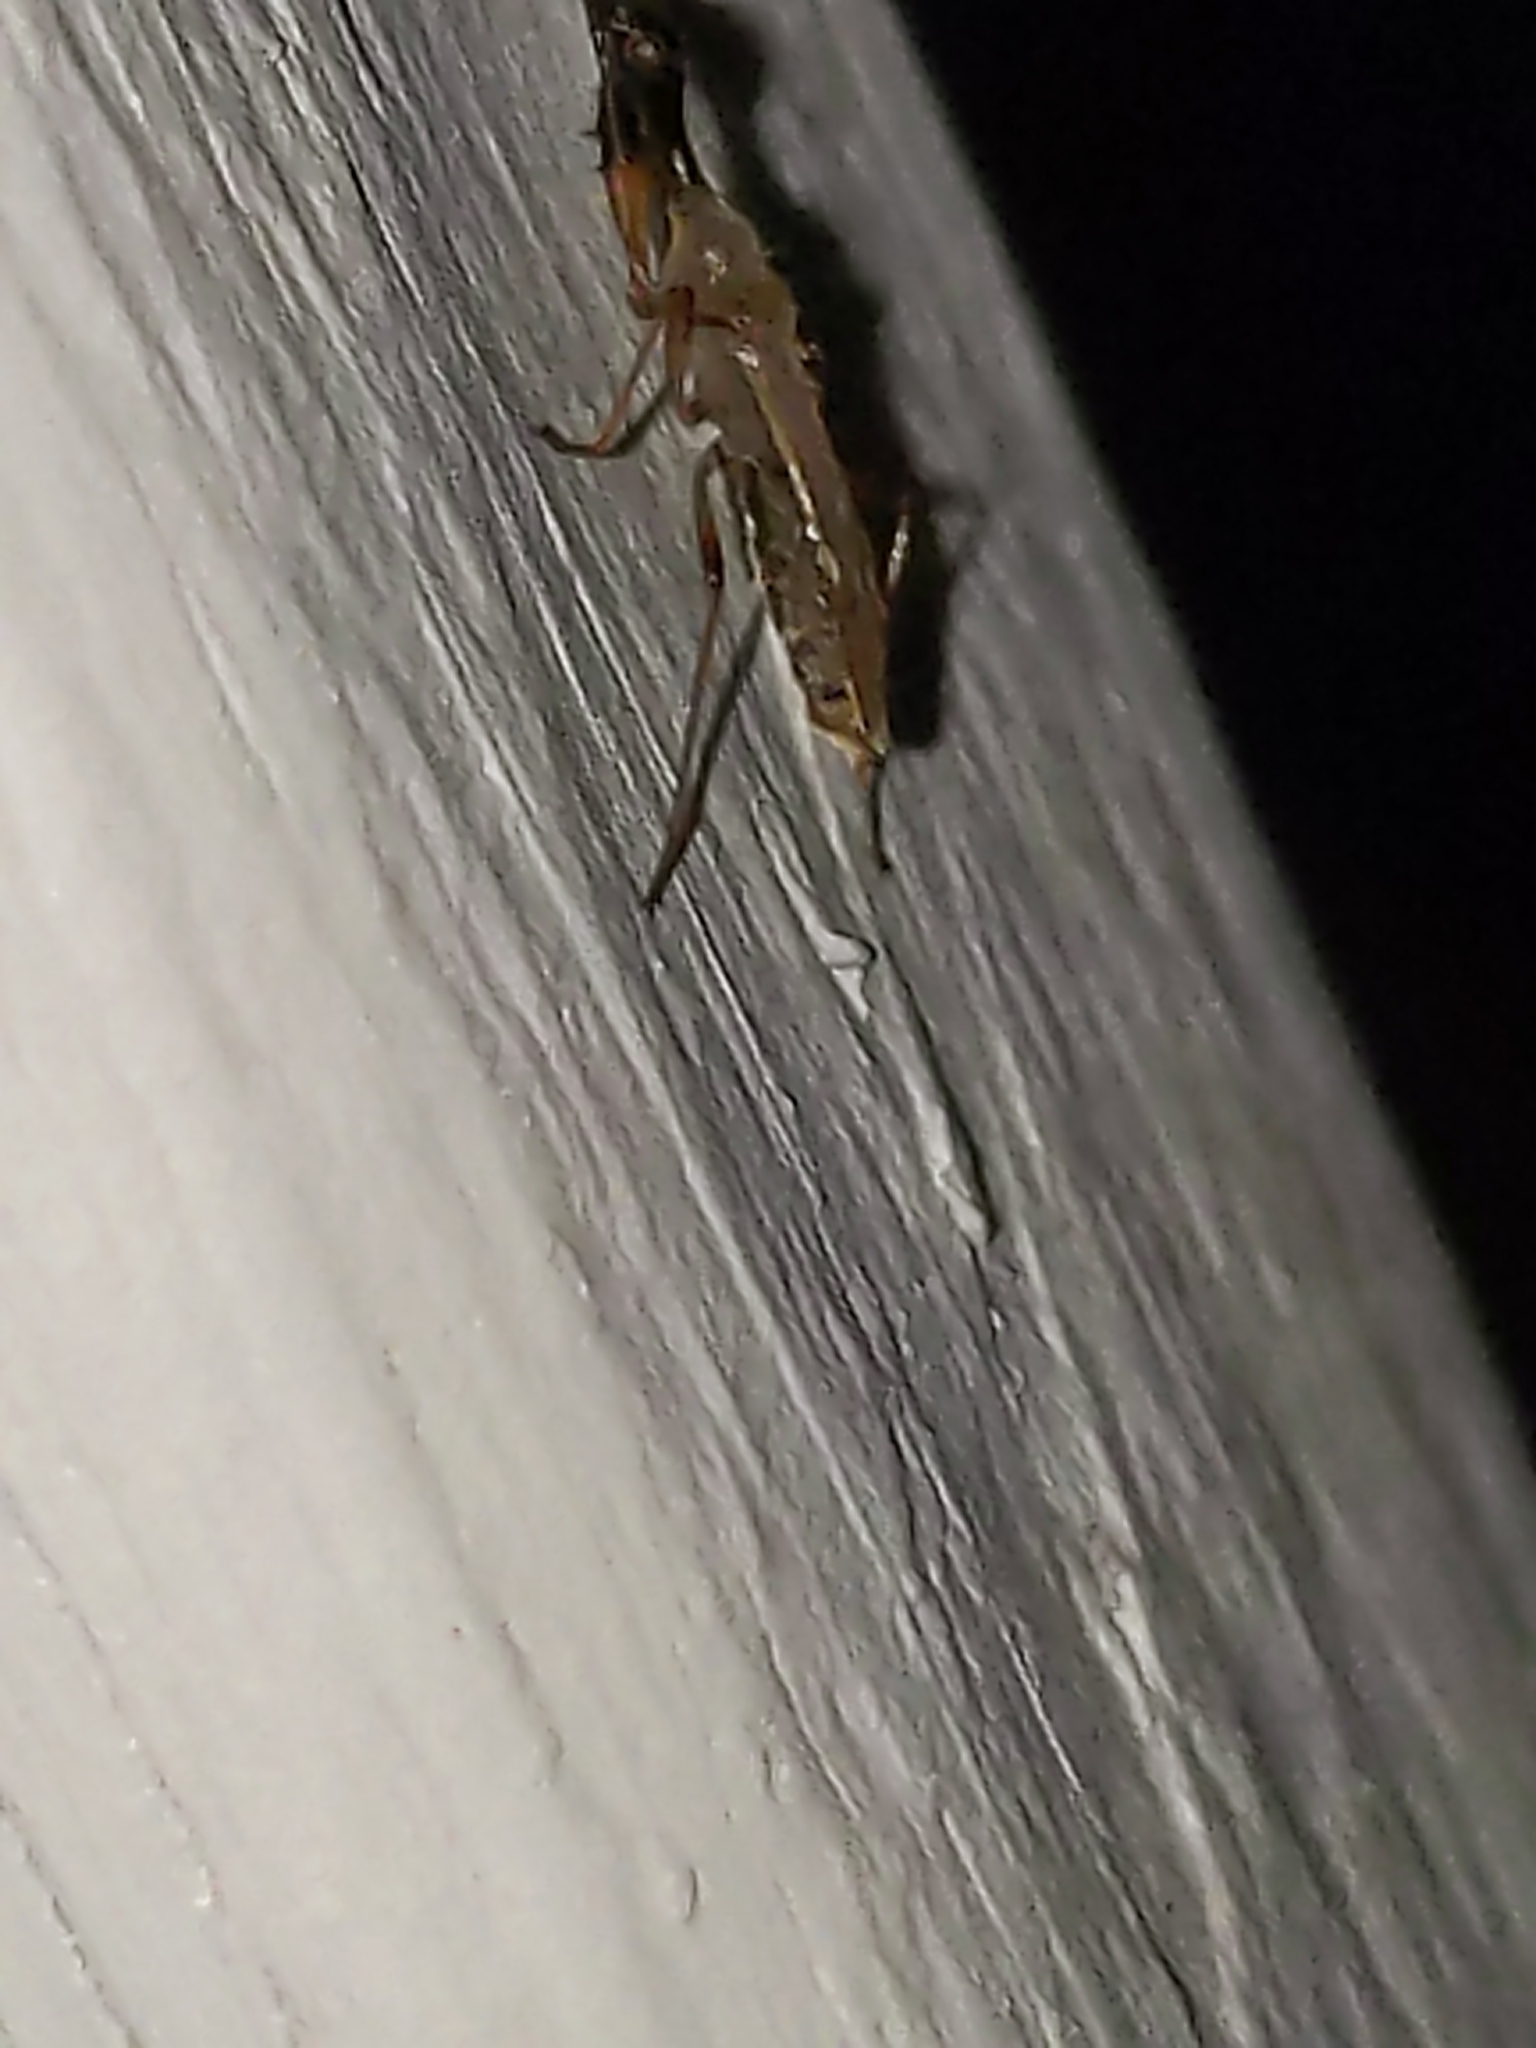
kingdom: Animalia
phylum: Arthropoda
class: Insecta
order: Hemiptera
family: Rhyparochromidae
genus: Myodocha
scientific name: Myodocha serripes
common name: Long-necked seed bug
